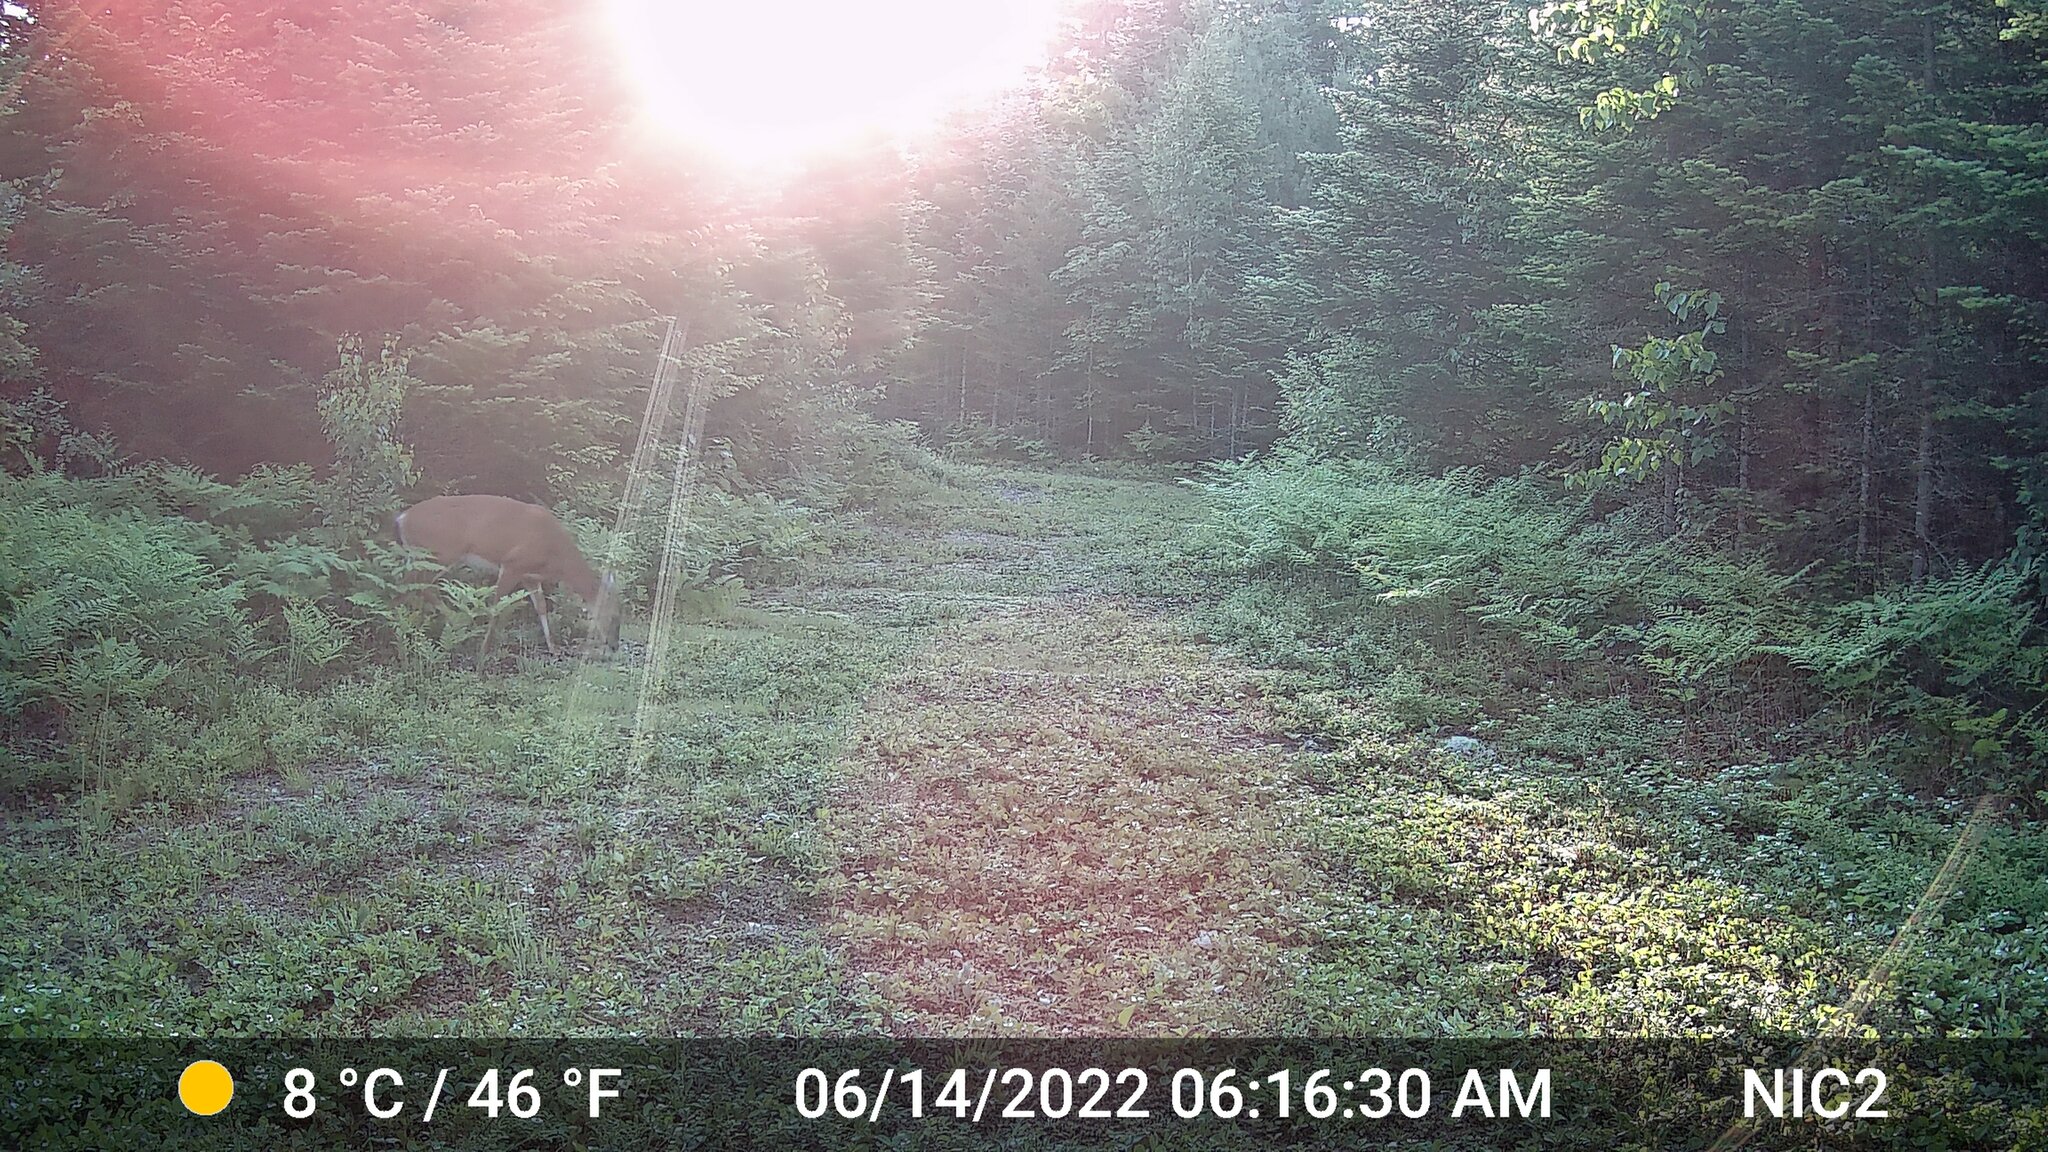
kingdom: Animalia
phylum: Chordata
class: Mammalia
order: Artiodactyla
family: Cervidae
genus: Odocoileus
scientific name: Odocoileus virginianus
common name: White-tailed deer
